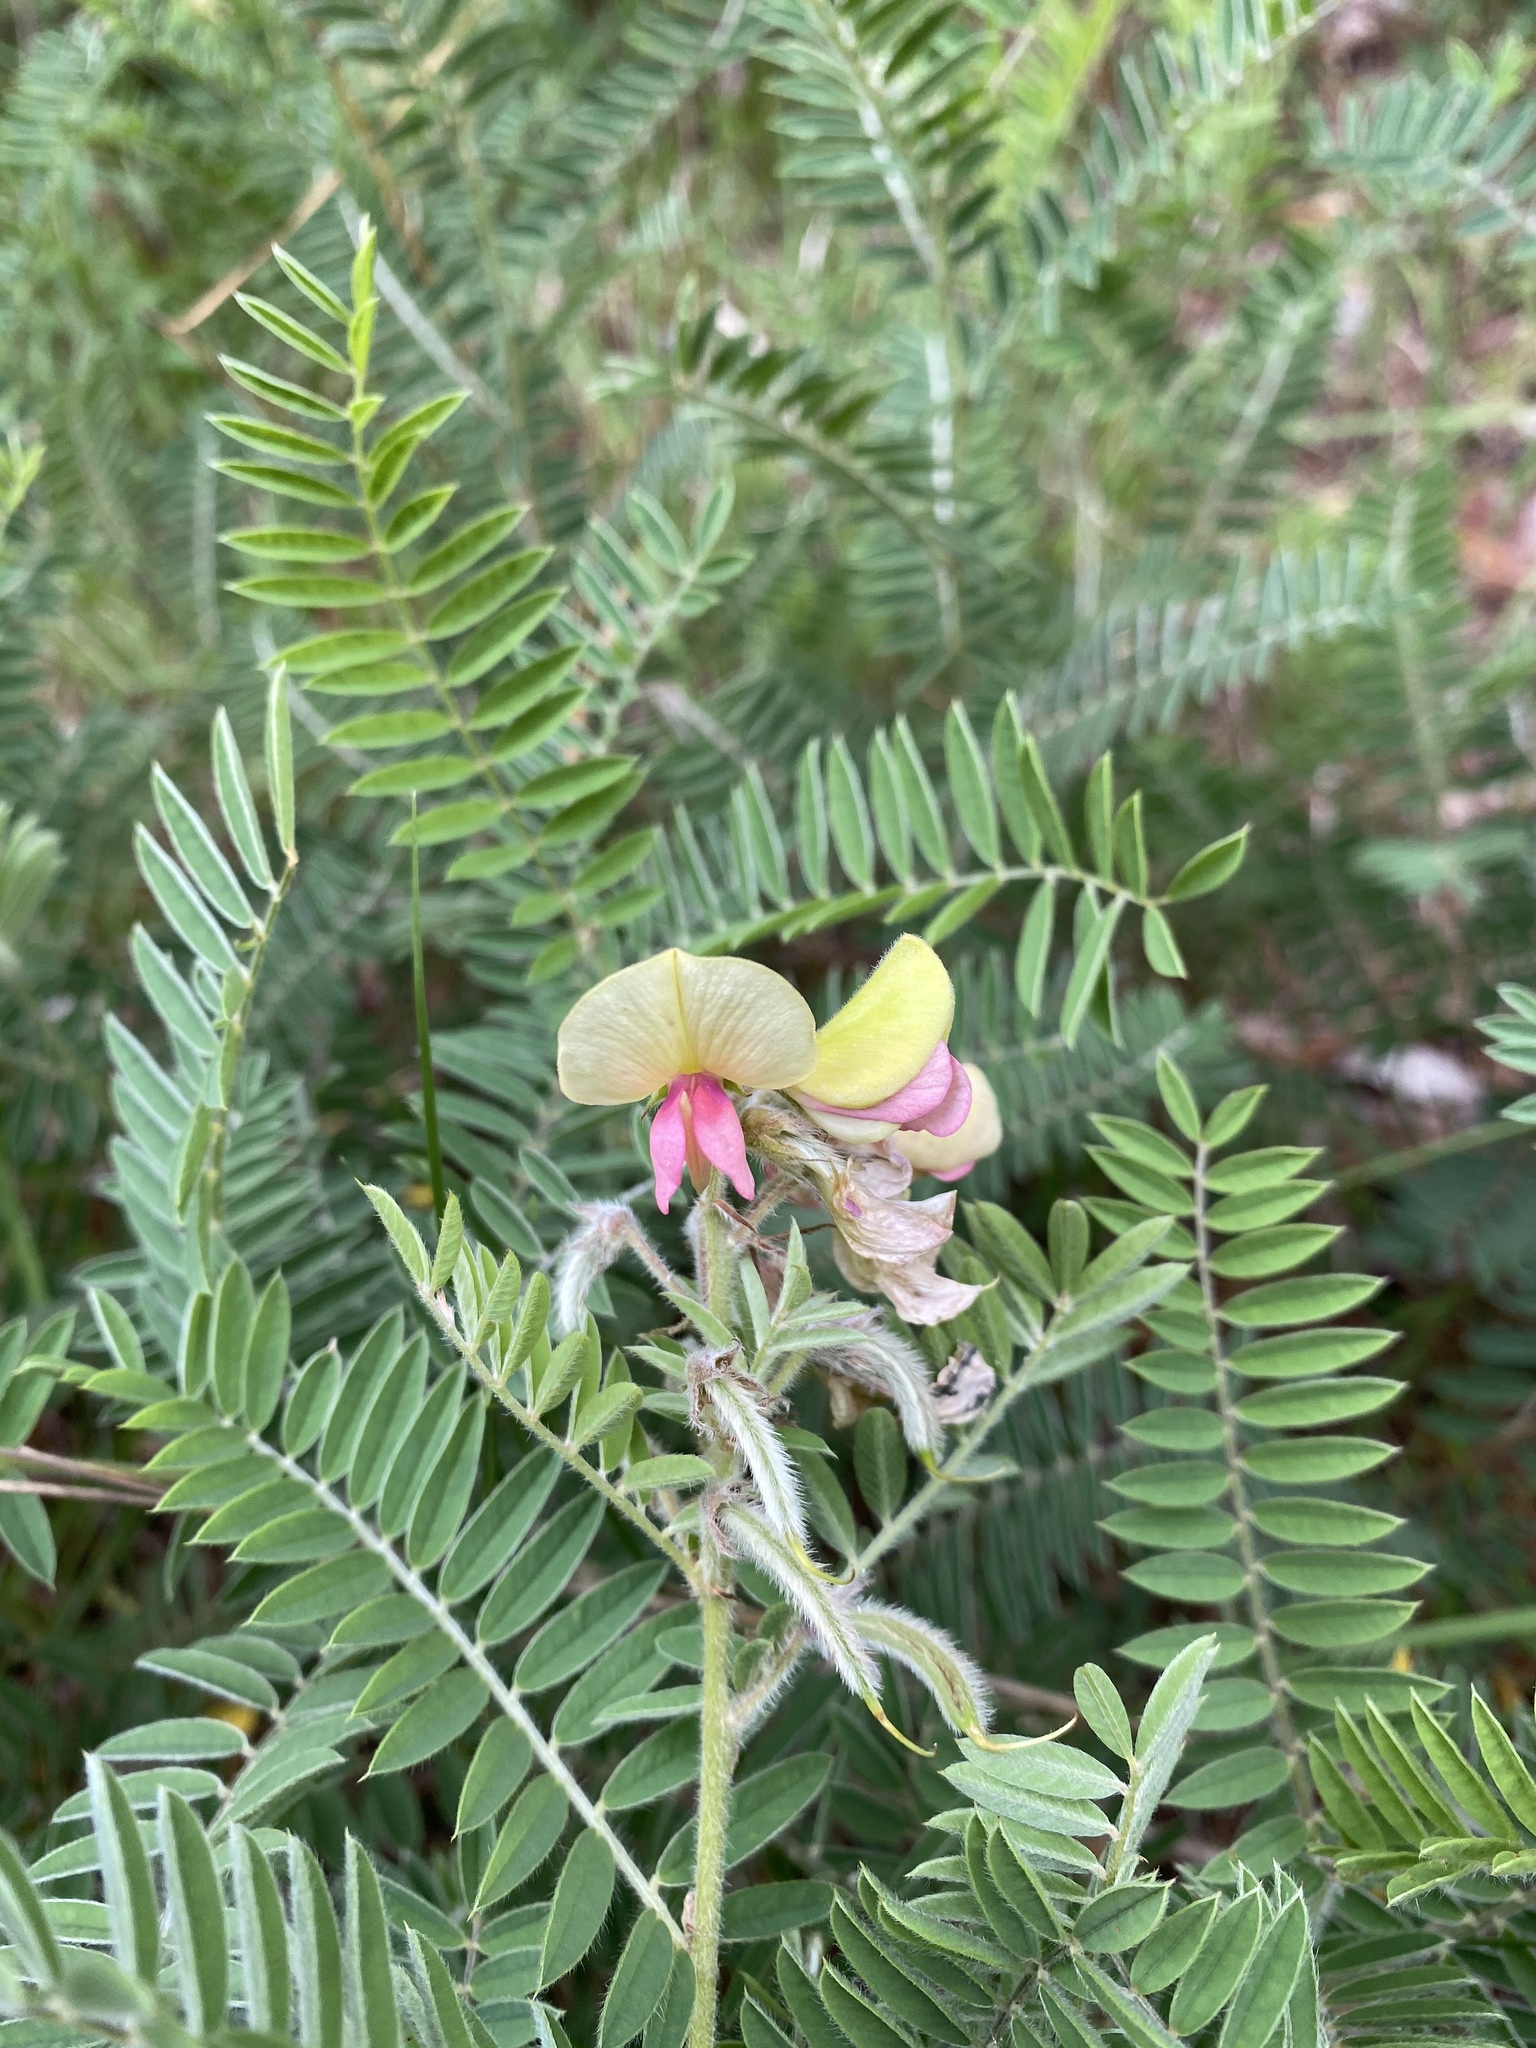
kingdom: Plantae
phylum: Tracheophyta
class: Magnoliopsida
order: Fabales
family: Fabaceae
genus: Tephrosia
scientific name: Tephrosia virginiana
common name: Rabbit-pea
